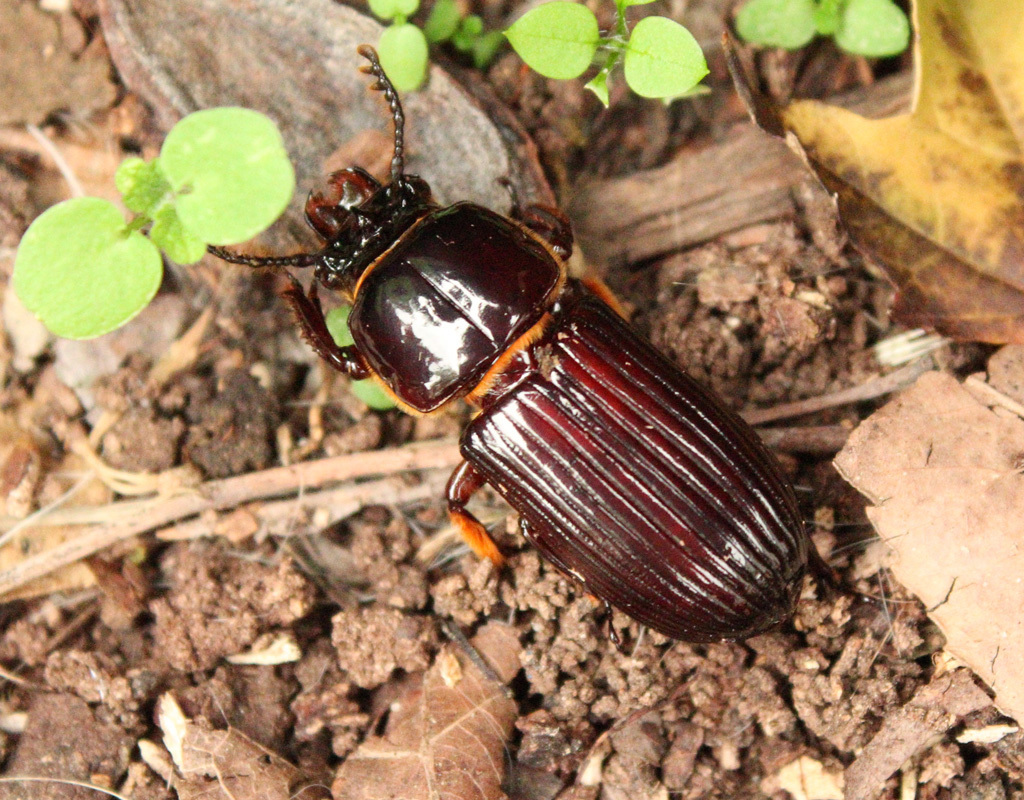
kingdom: Animalia
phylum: Arthropoda
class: Insecta
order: Coleoptera
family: Passalidae
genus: Odontotaenius
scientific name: Odontotaenius disjunctus
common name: Patent leather beetle
